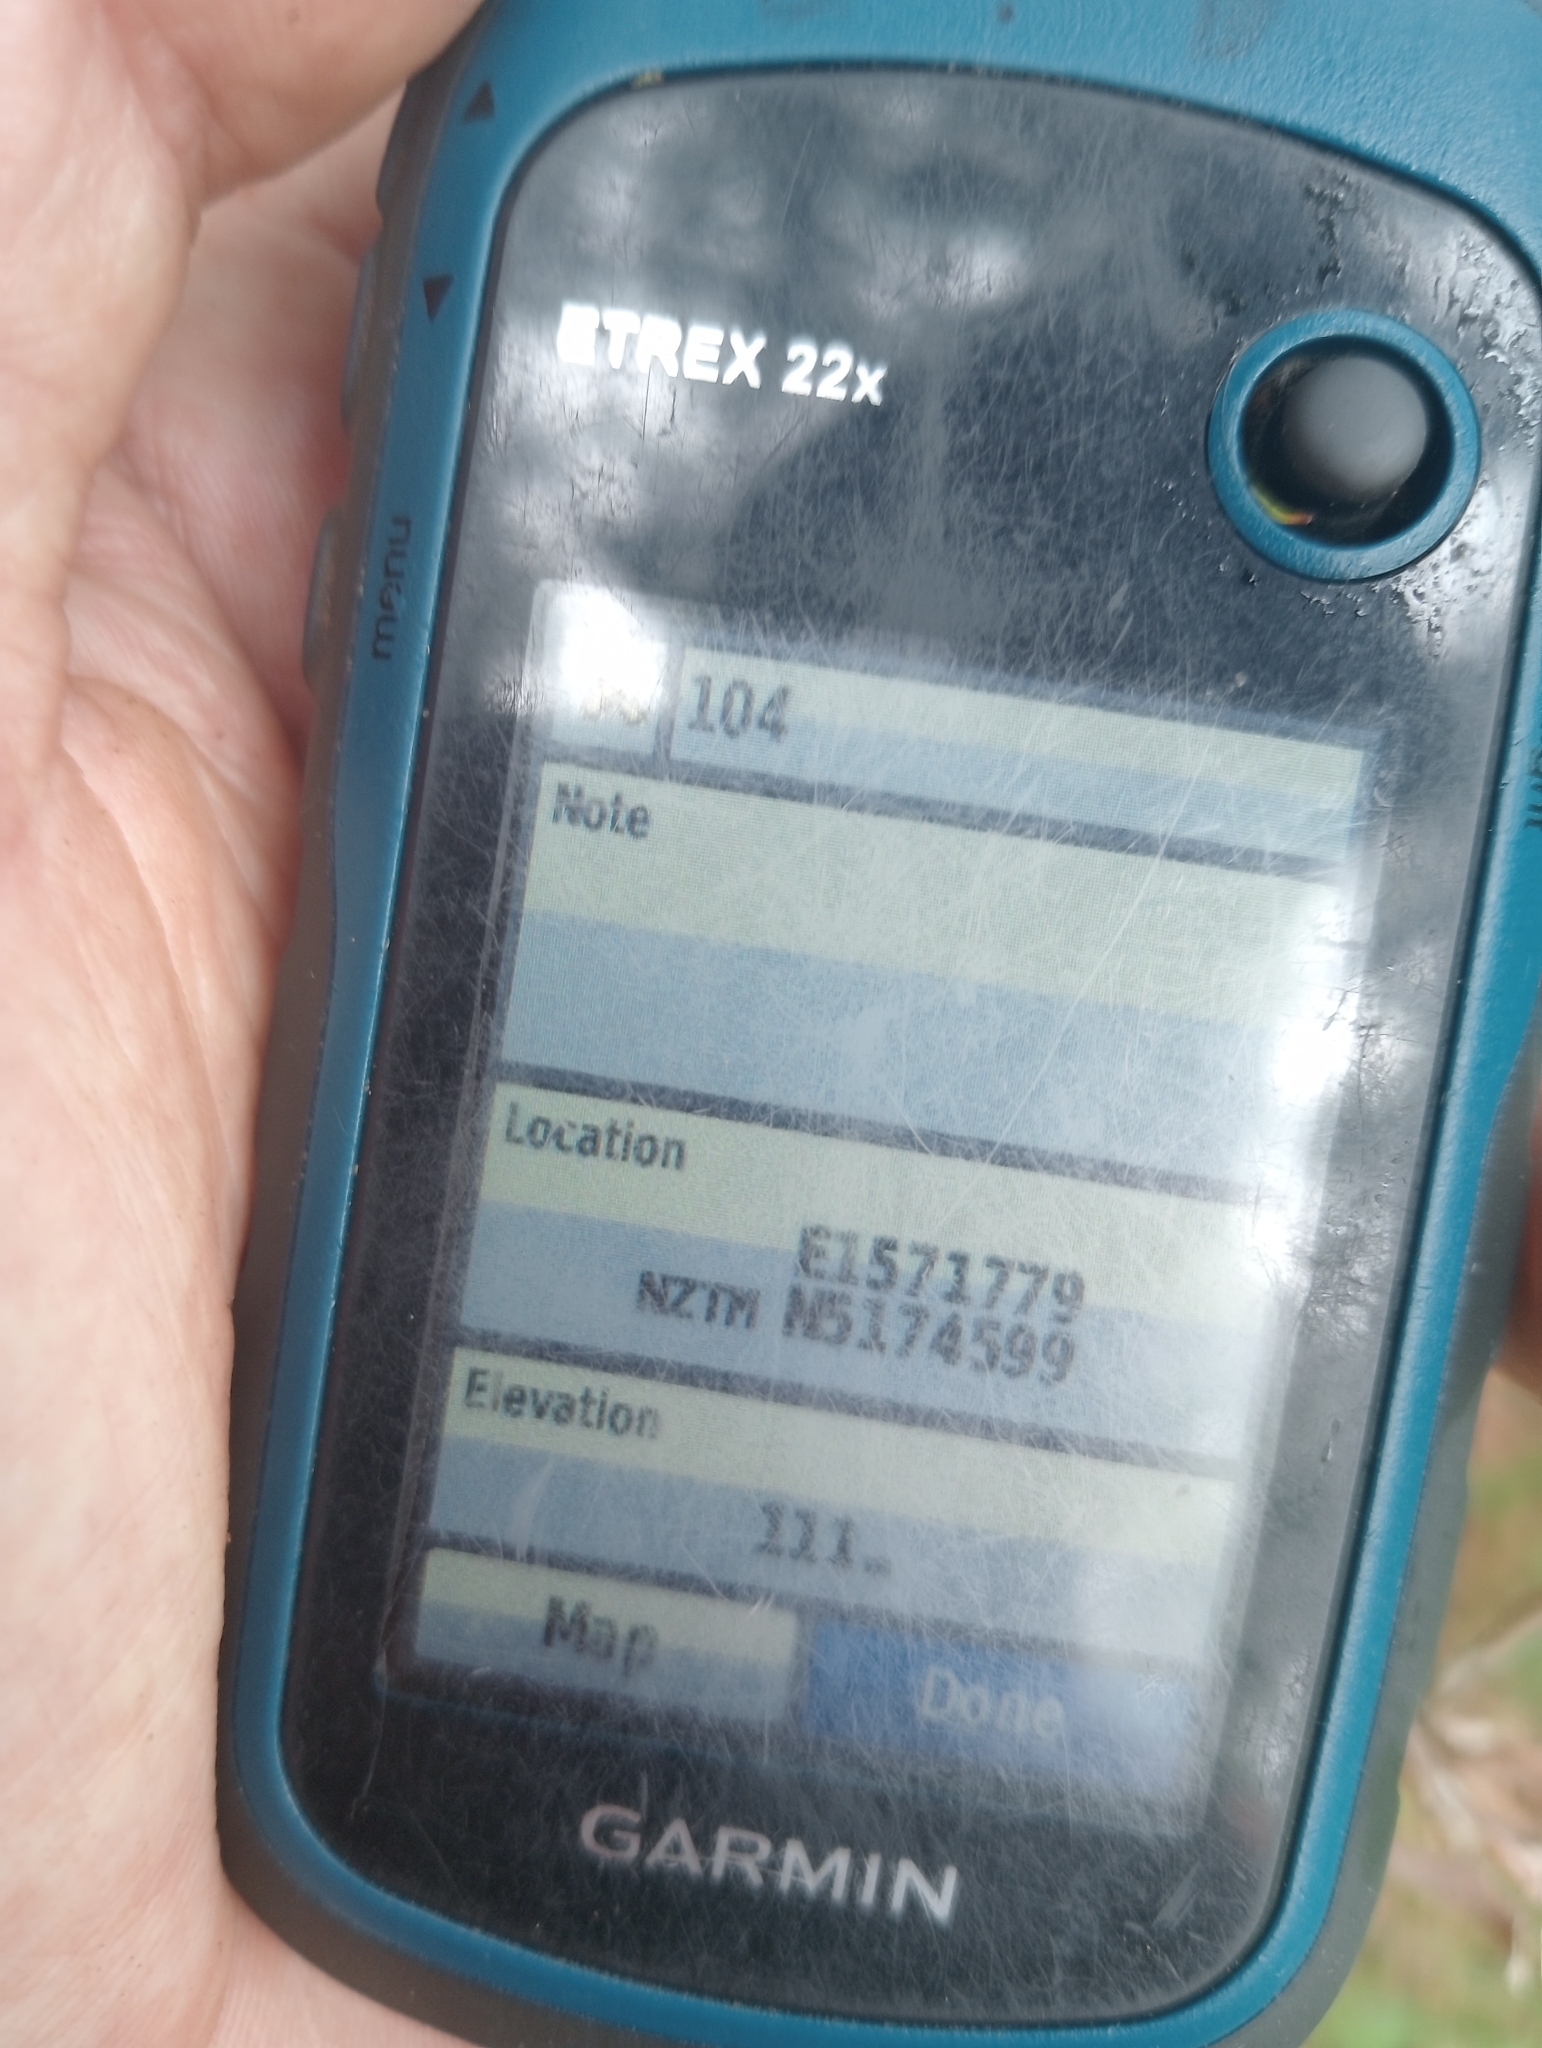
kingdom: Plantae
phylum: Tracheophyta
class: Magnoliopsida
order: Asterales
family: Asteraceae
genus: Helichrysum
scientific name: Helichrysum petiolare
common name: Licorice-plant
